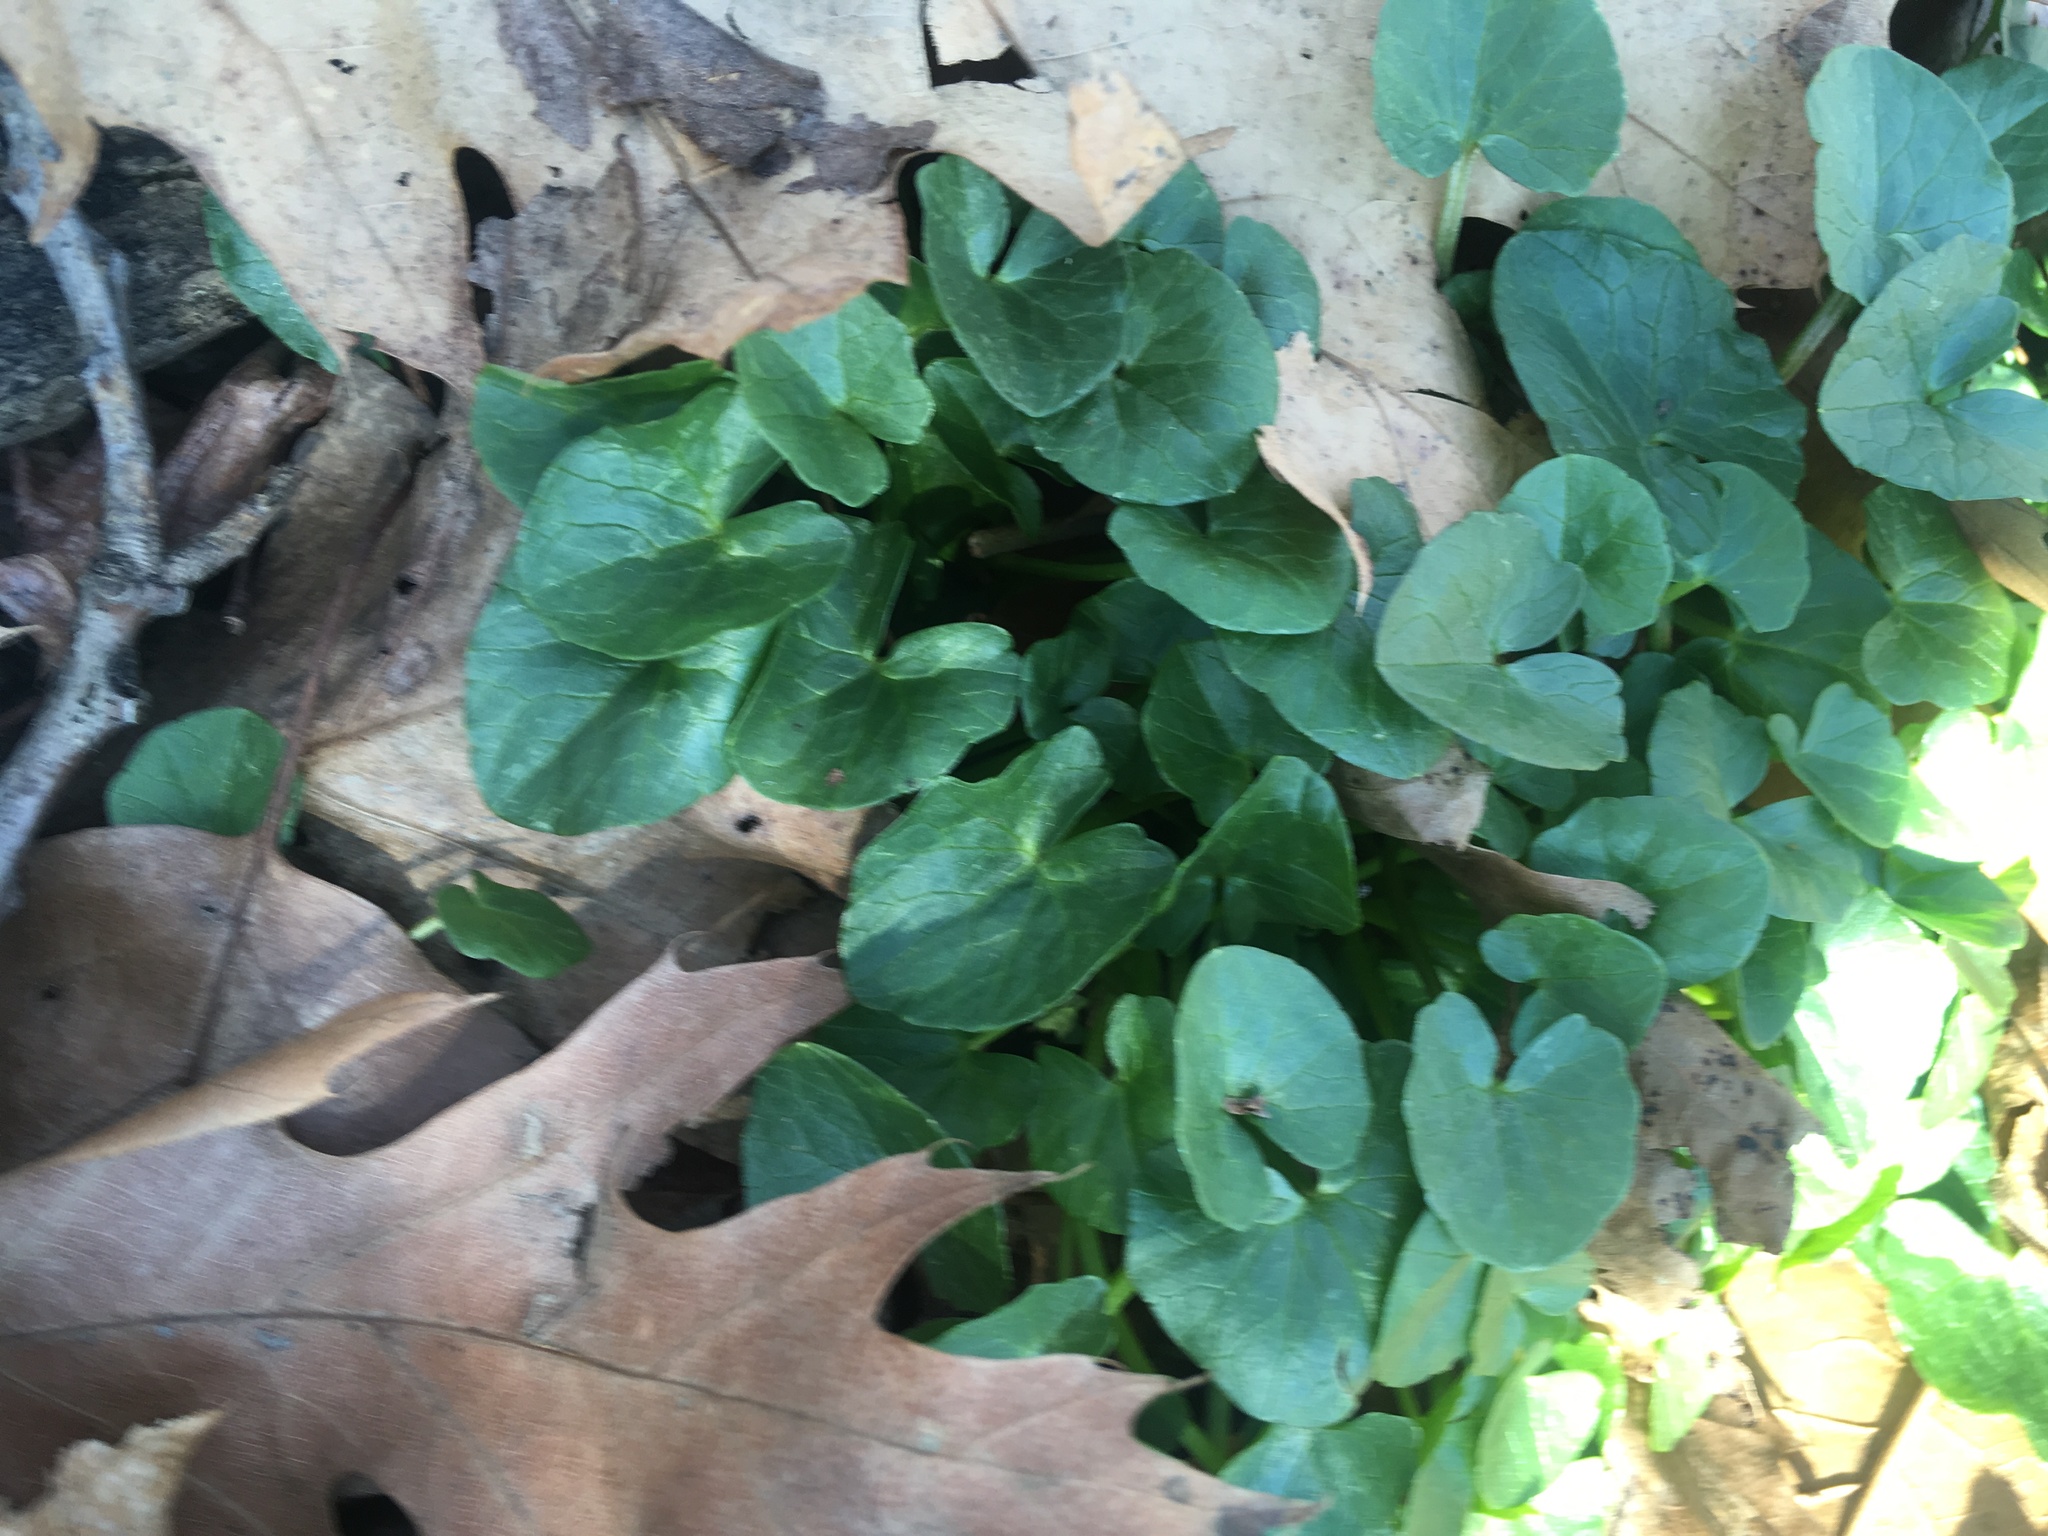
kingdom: Plantae
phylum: Tracheophyta
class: Magnoliopsida
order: Ranunculales
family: Ranunculaceae
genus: Ficaria
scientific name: Ficaria verna
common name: Lesser celandine
